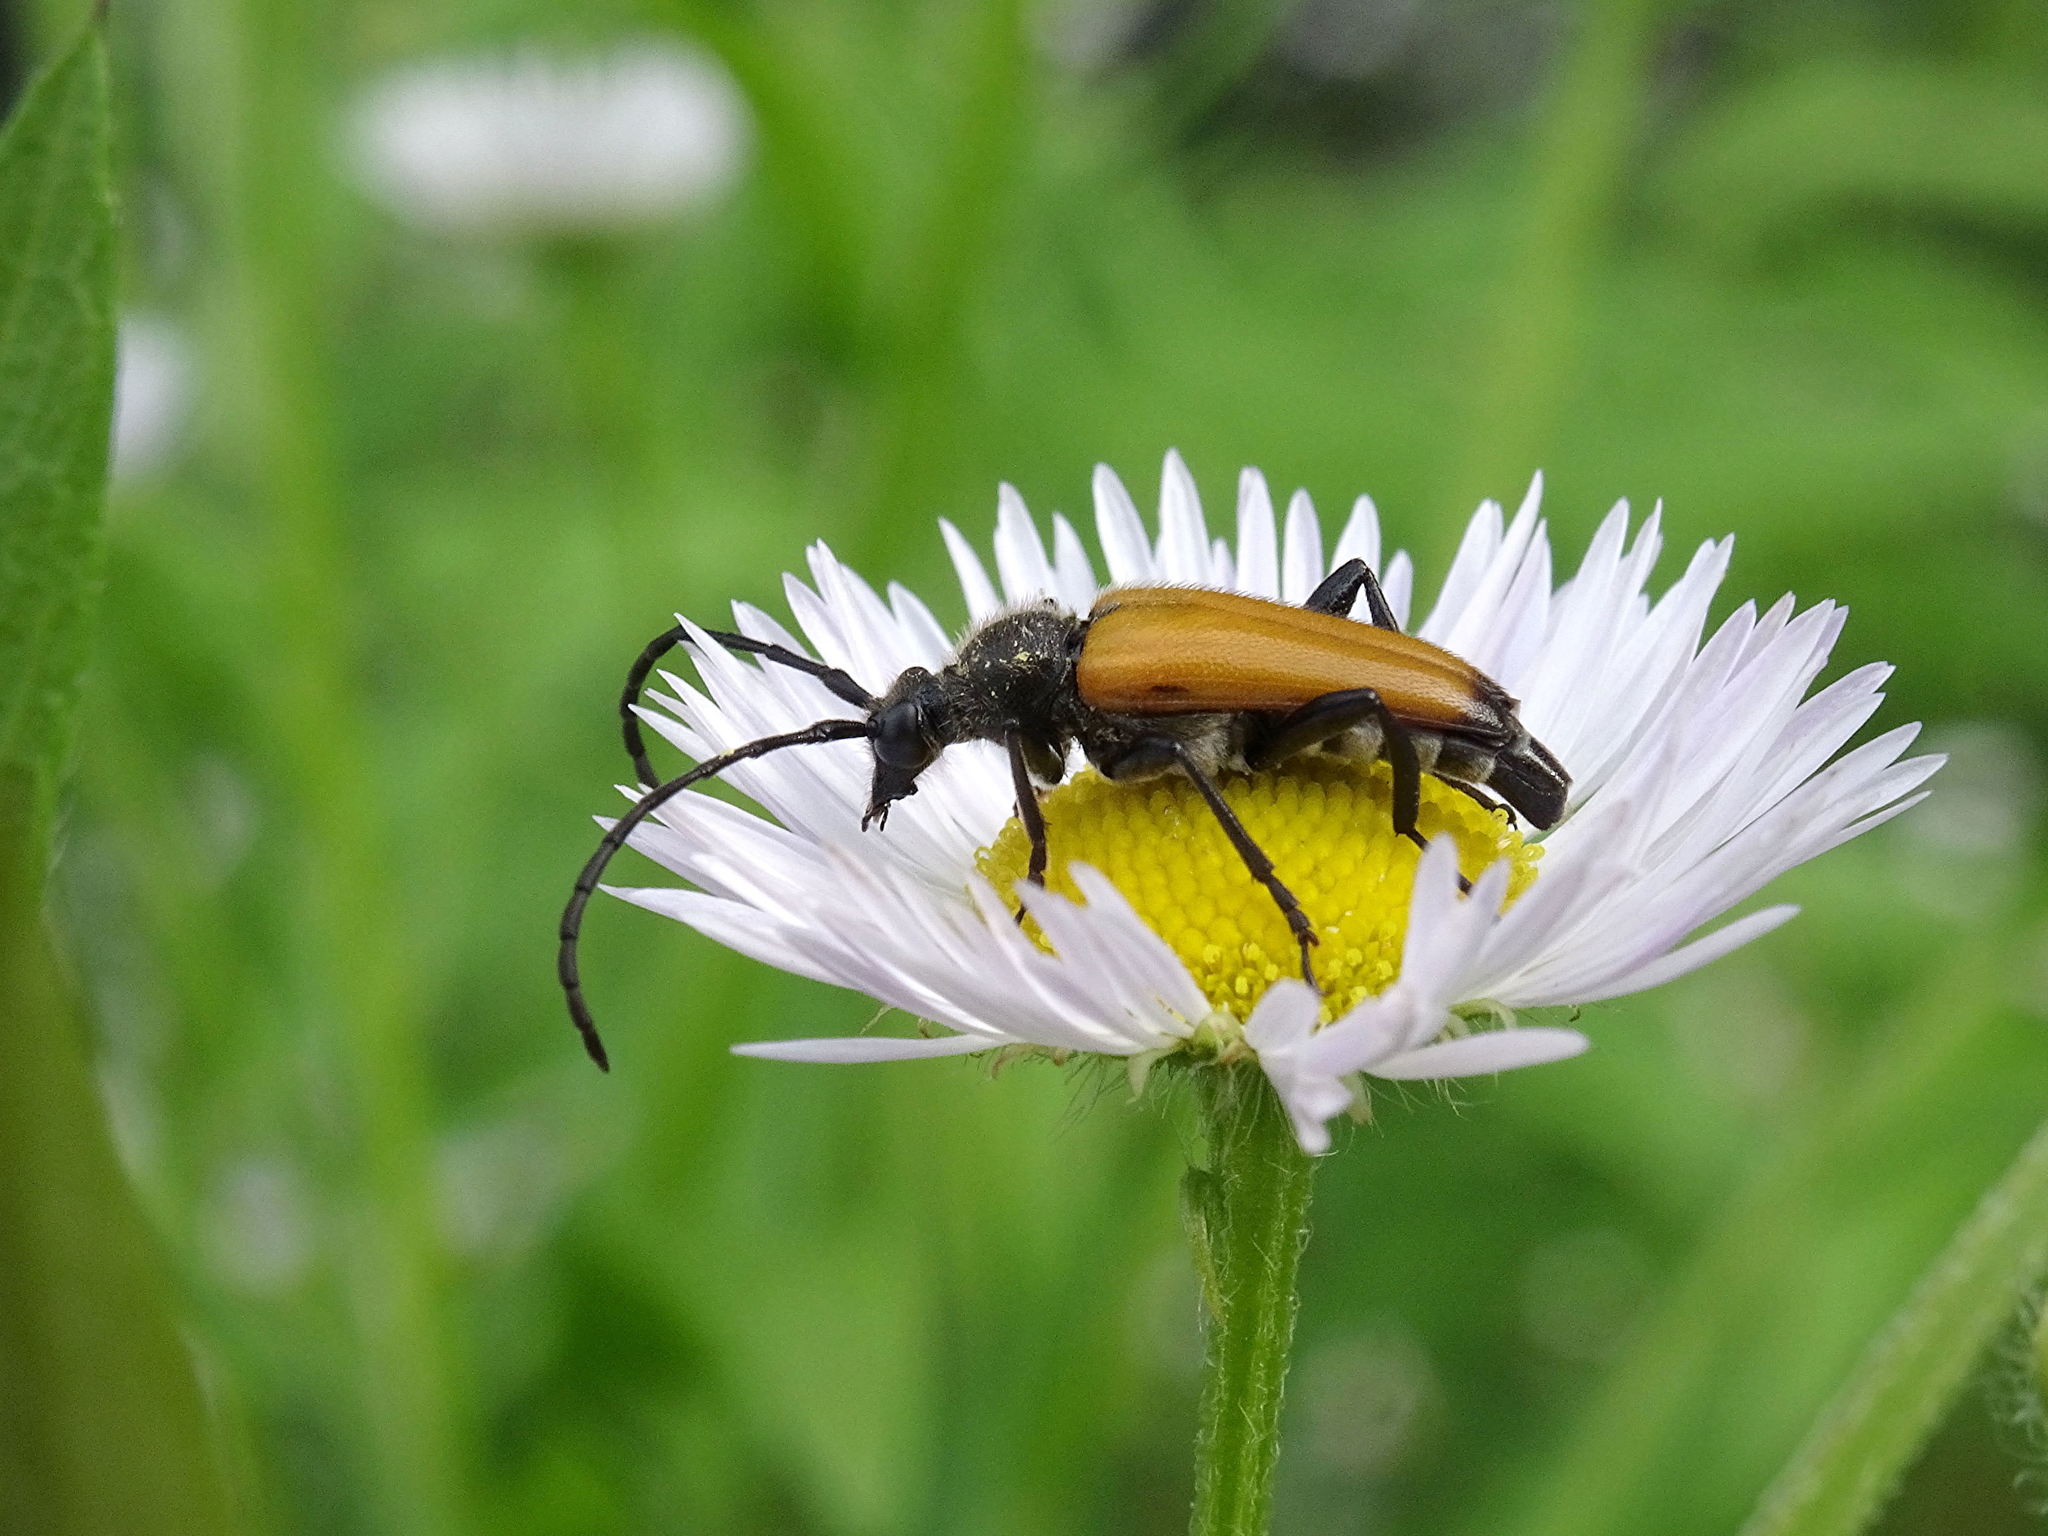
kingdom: Animalia
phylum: Arthropoda
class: Insecta
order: Coleoptera
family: Cerambycidae
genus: Paracorymbia
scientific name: Paracorymbia fulva
